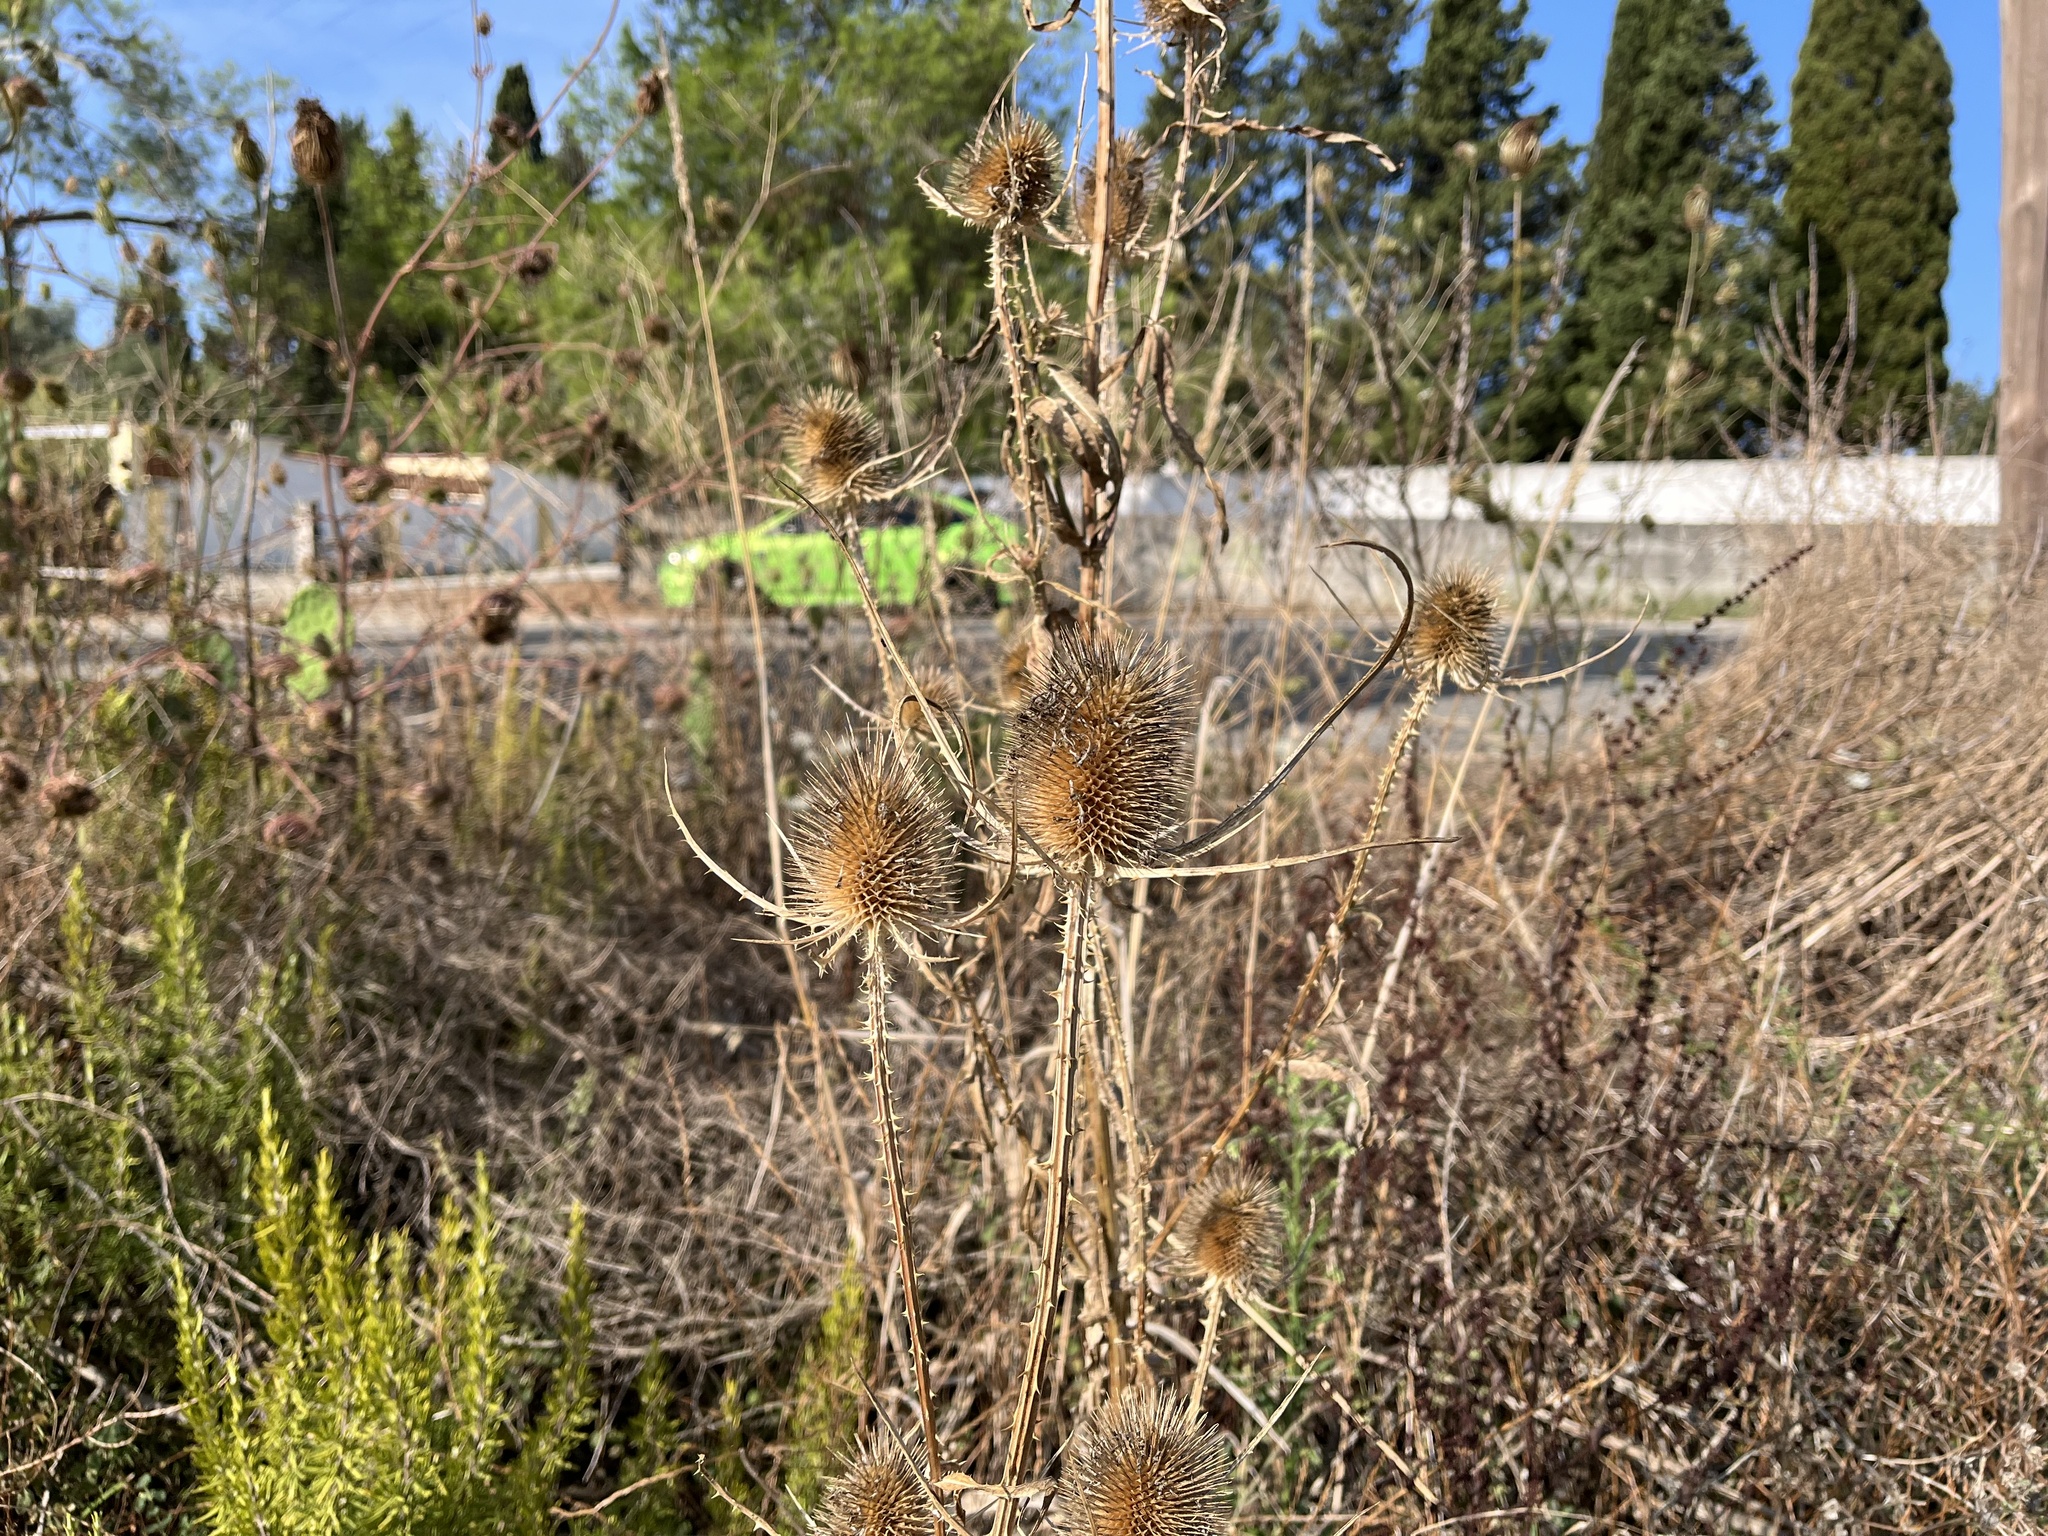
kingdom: Plantae
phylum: Tracheophyta
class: Magnoliopsida
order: Dipsacales
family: Caprifoliaceae
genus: Dipsacus
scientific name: Dipsacus fullonum
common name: Teasel
